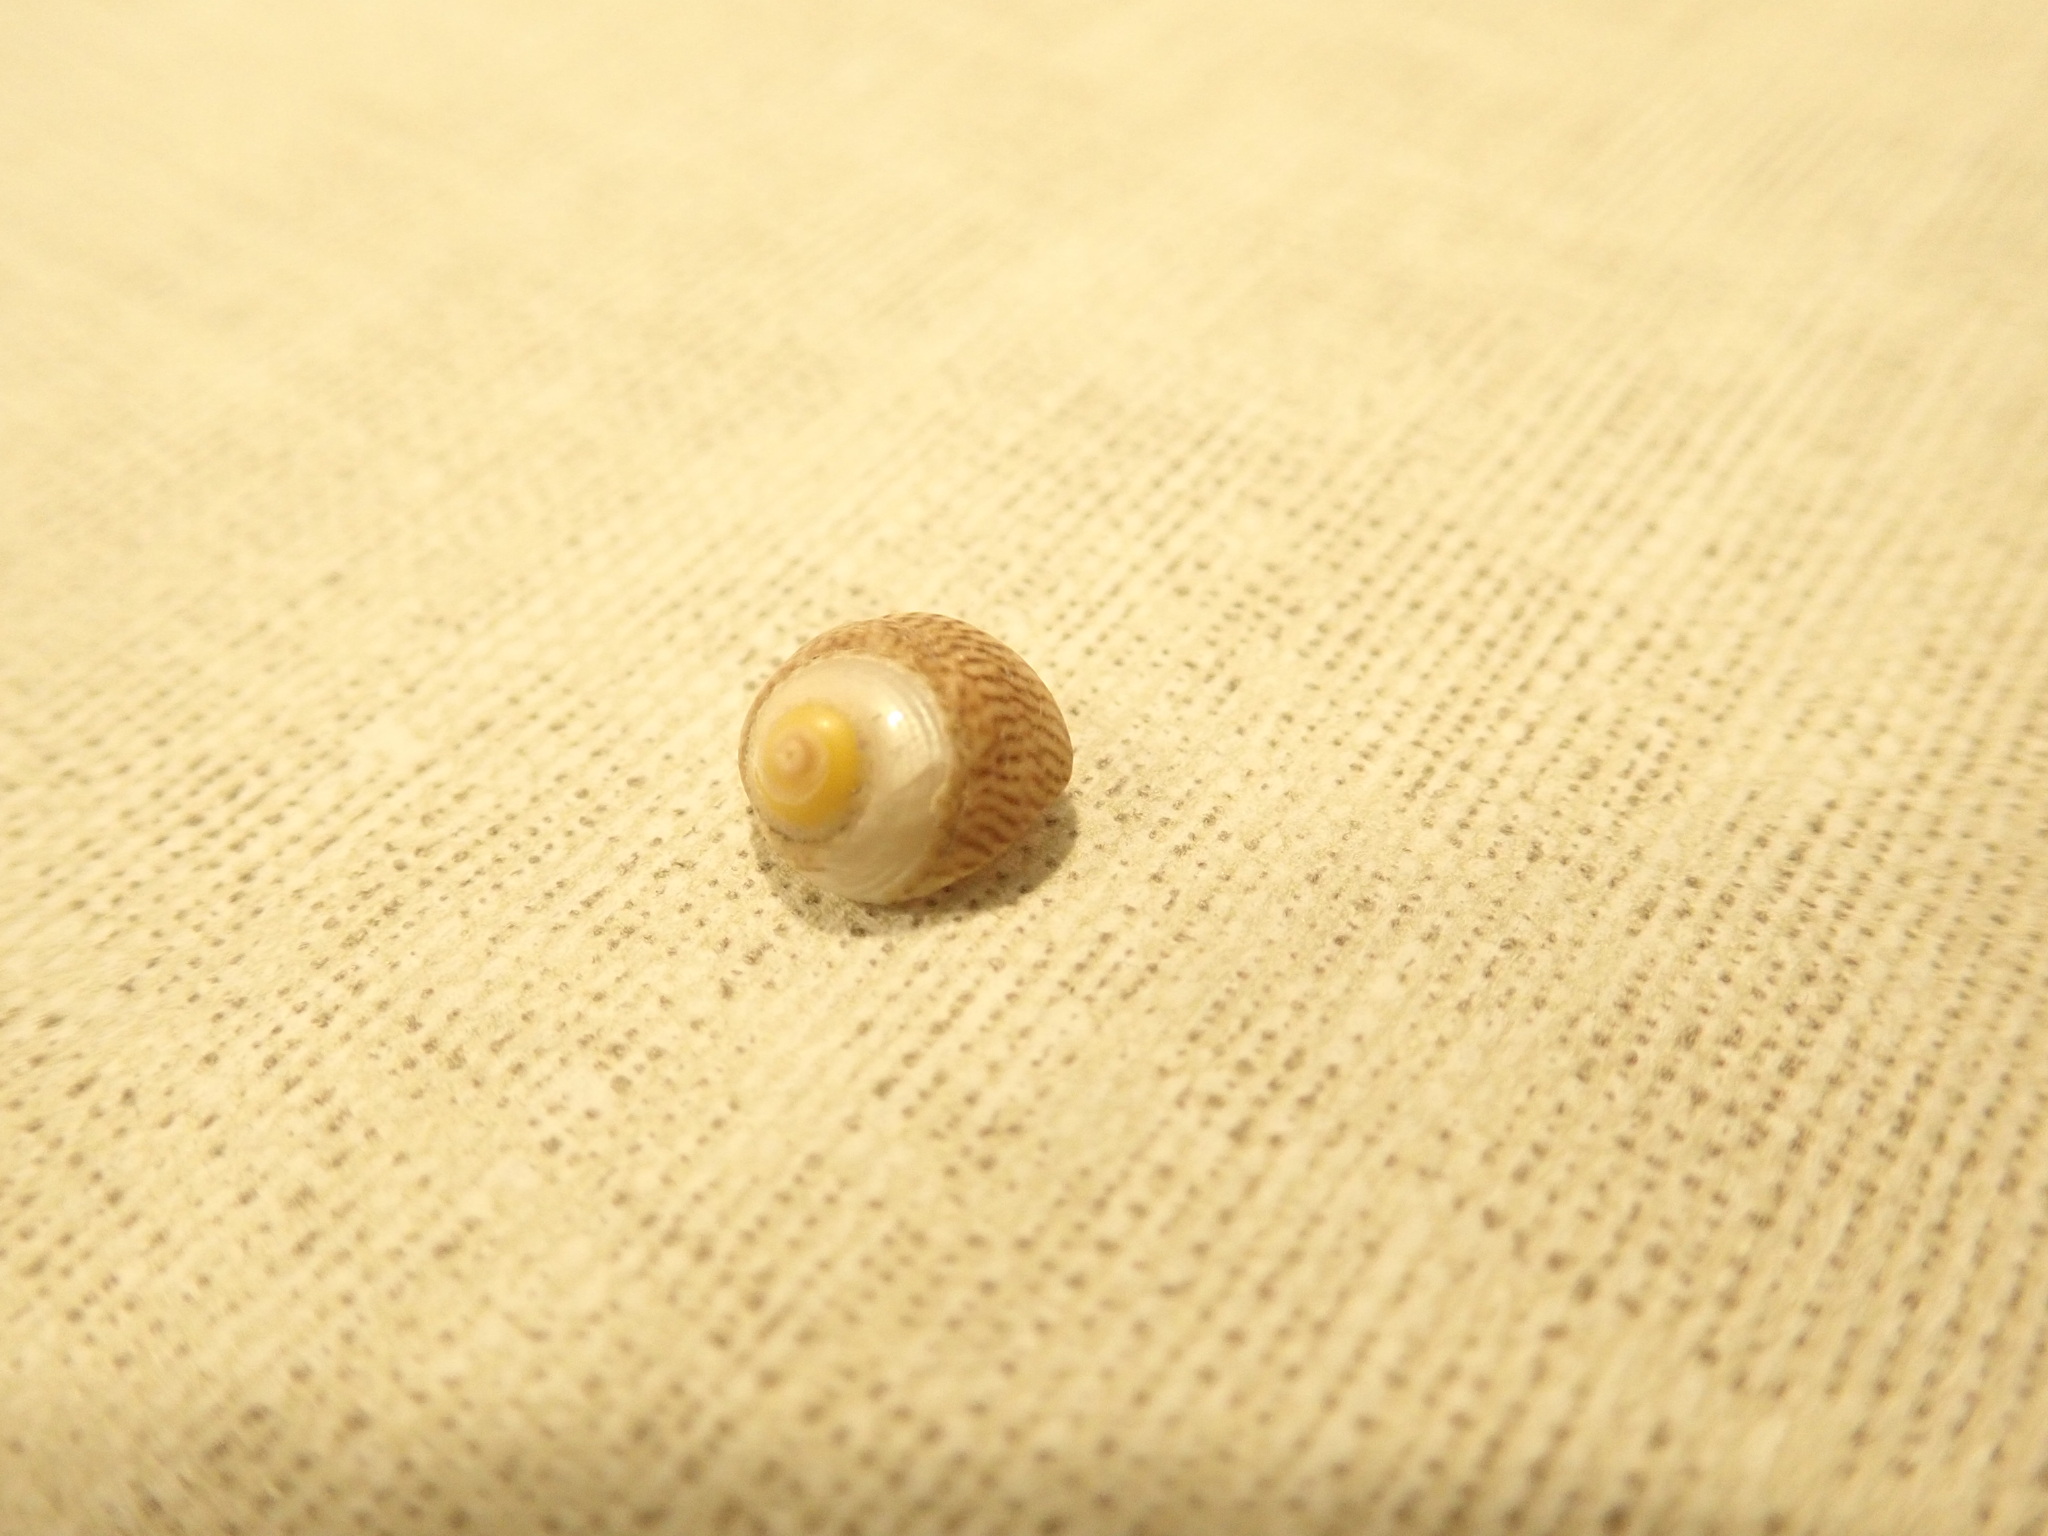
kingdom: Animalia
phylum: Mollusca
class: Gastropoda
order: Trochida
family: Trochidae
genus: Steromphala
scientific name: Steromphala cineraria
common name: Grey top shell
